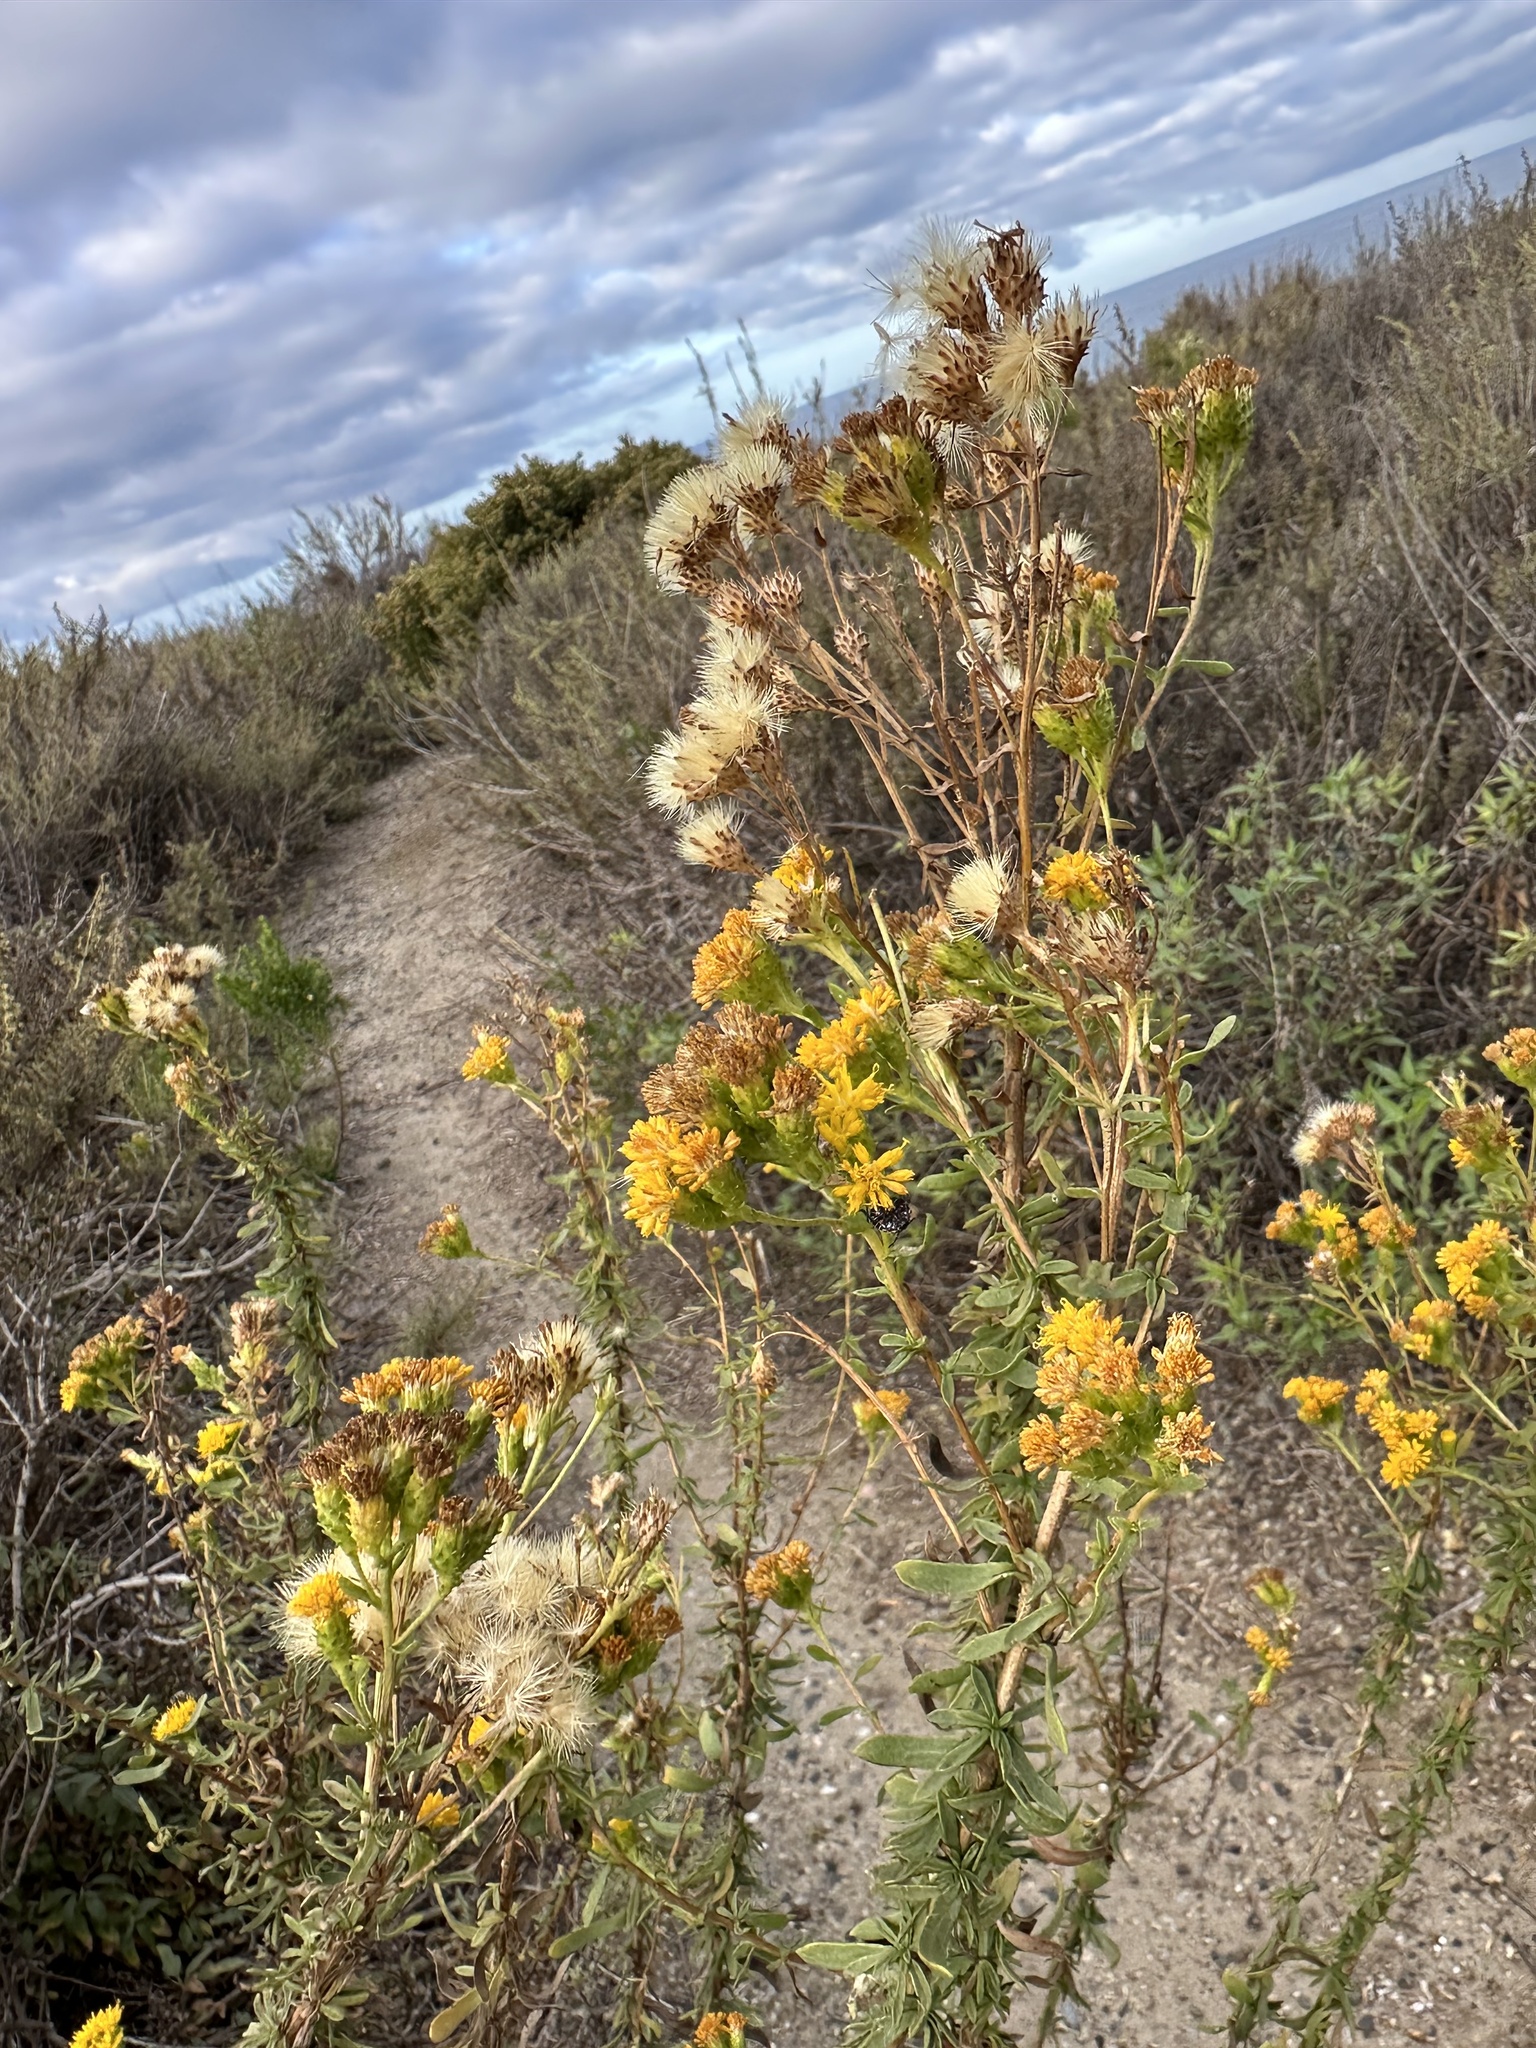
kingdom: Plantae
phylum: Tracheophyta
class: Magnoliopsida
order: Asterales
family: Asteraceae
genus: Isocoma
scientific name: Isocoma menziesii
